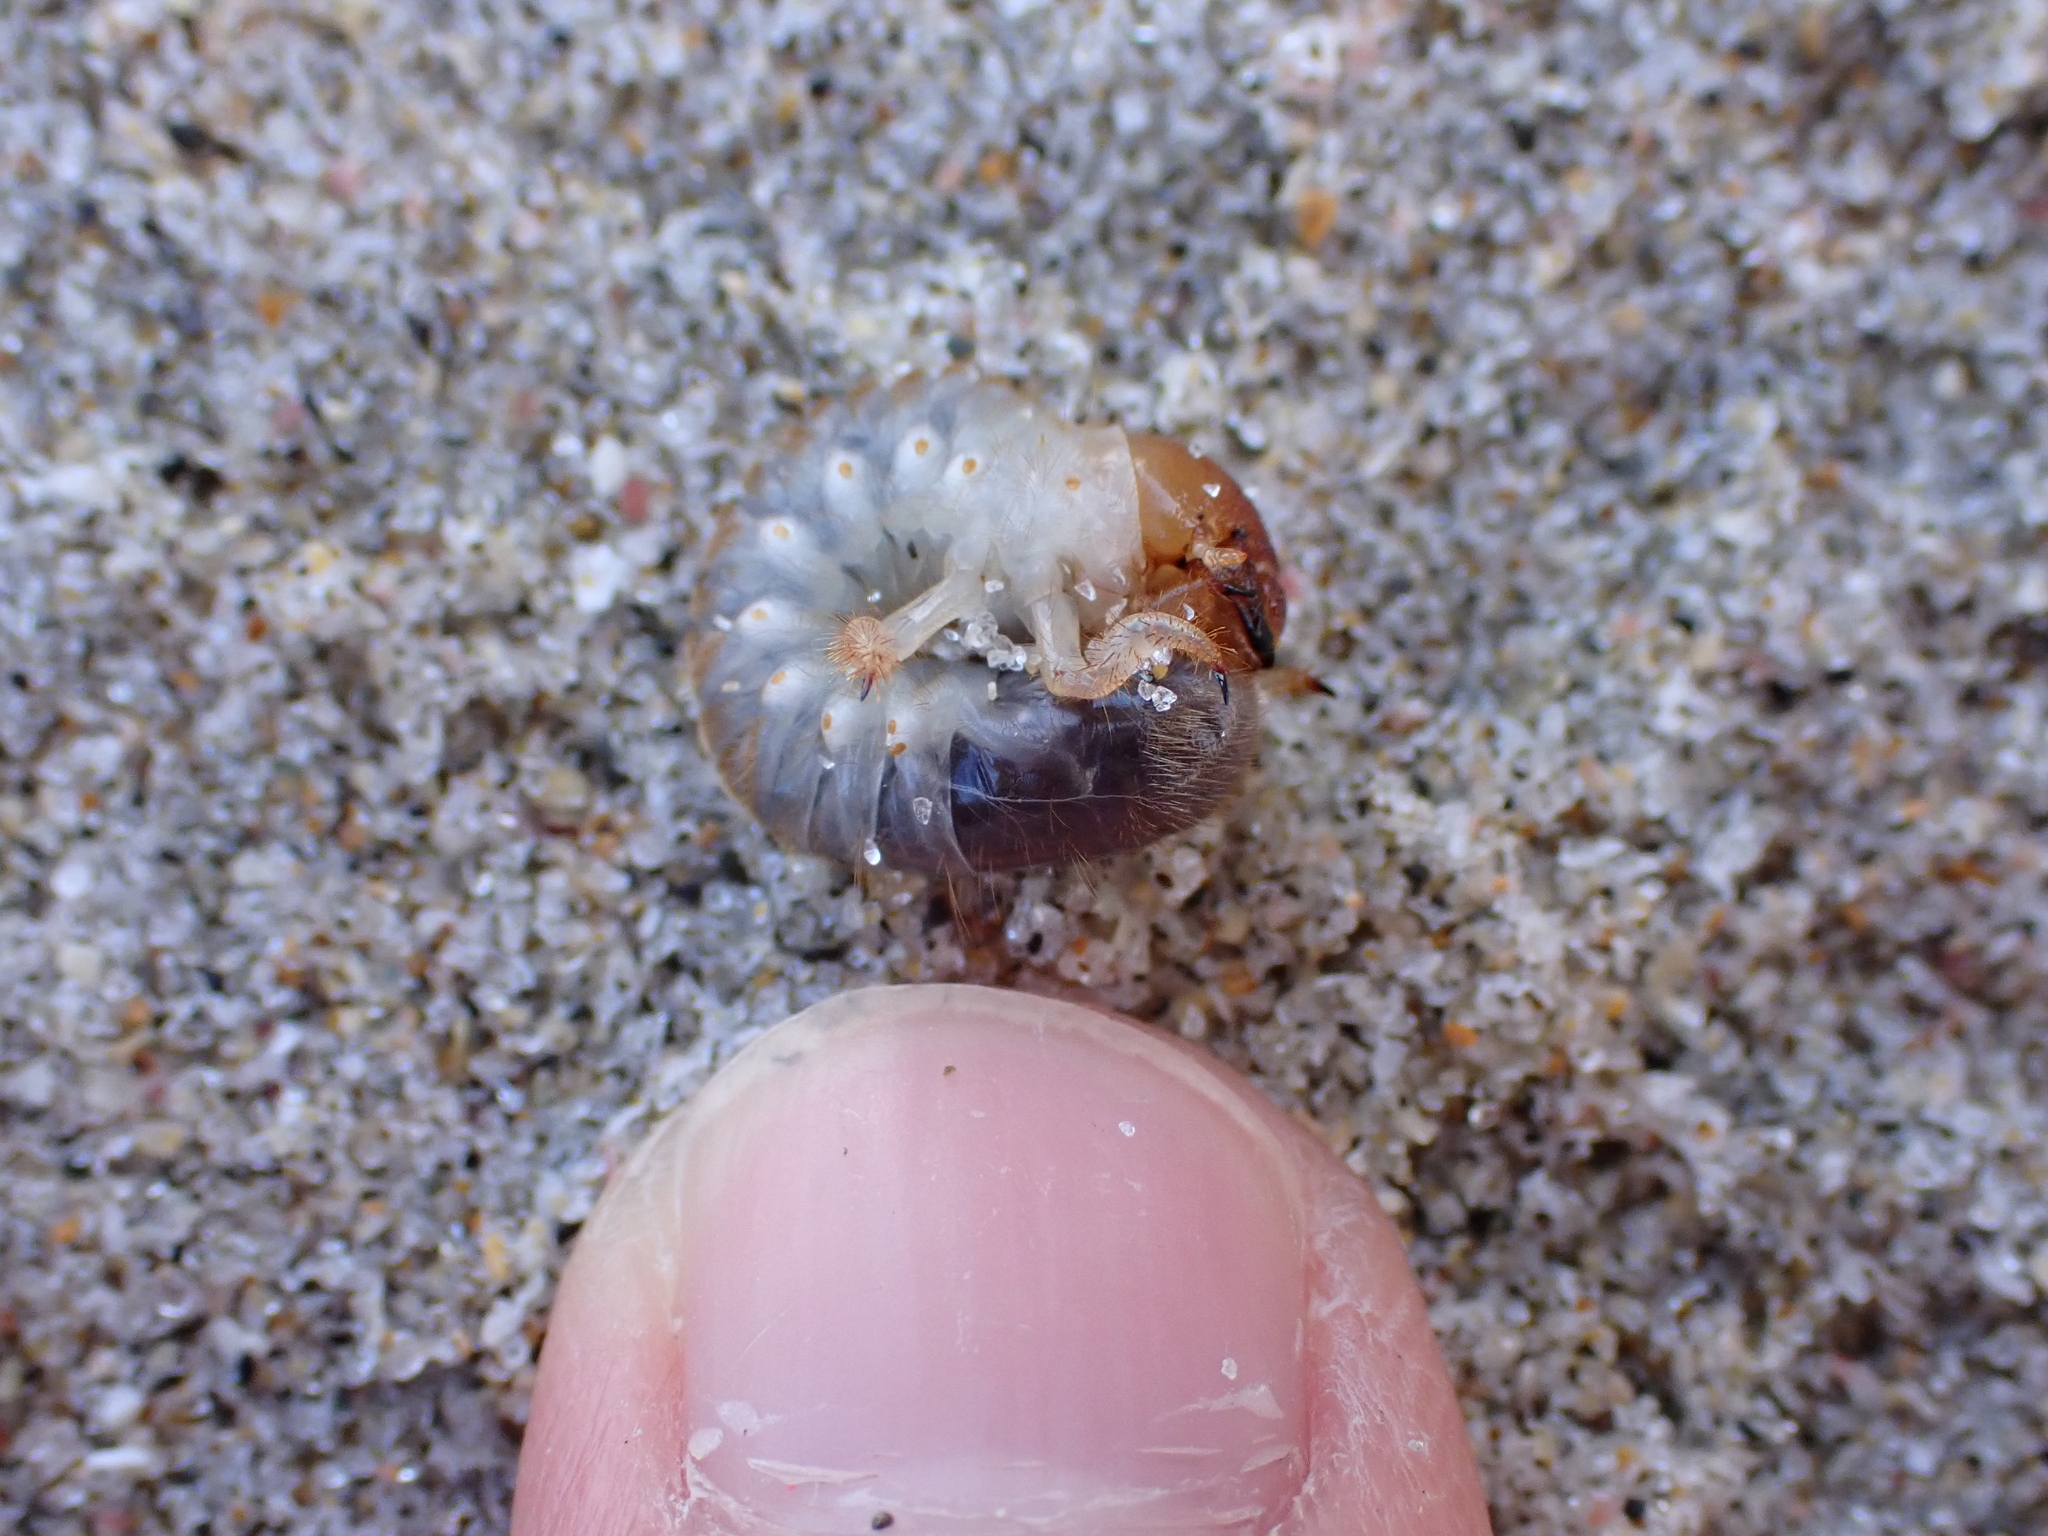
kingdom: Animalia
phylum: Arthropoda
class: Insecta
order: Coleoptera
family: Scarabaeidae
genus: Pericoptus
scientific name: Pericoptus truncatus
